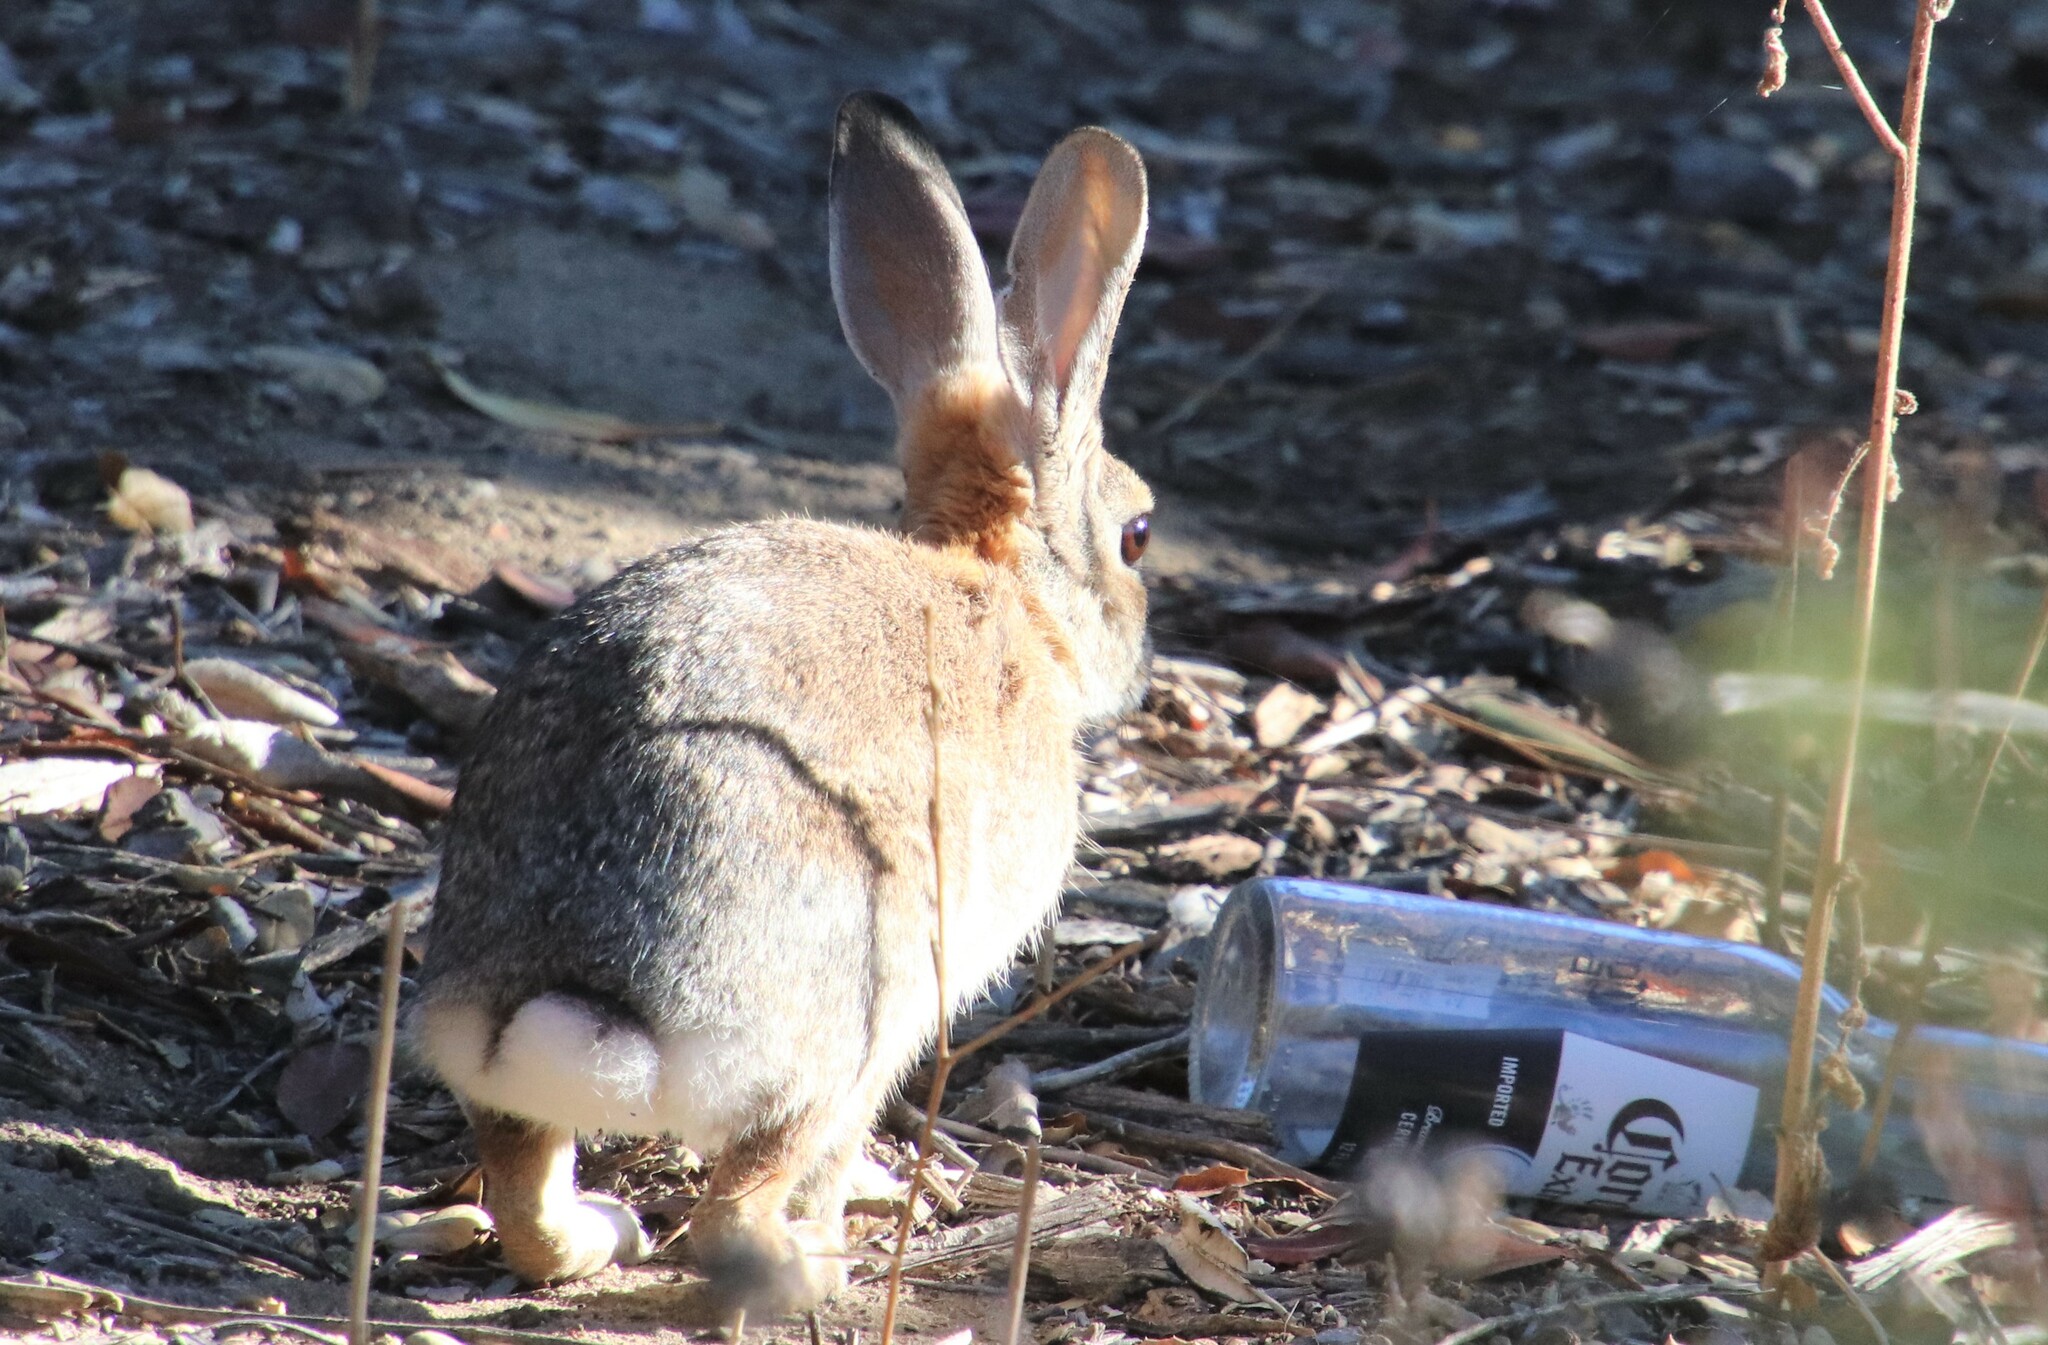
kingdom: Animalia
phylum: Chordata
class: Mammalia
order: Lagomorpha
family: Leporidae
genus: Sylvilagus
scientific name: Sylvilagus audubonii
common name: Desert cottontail
